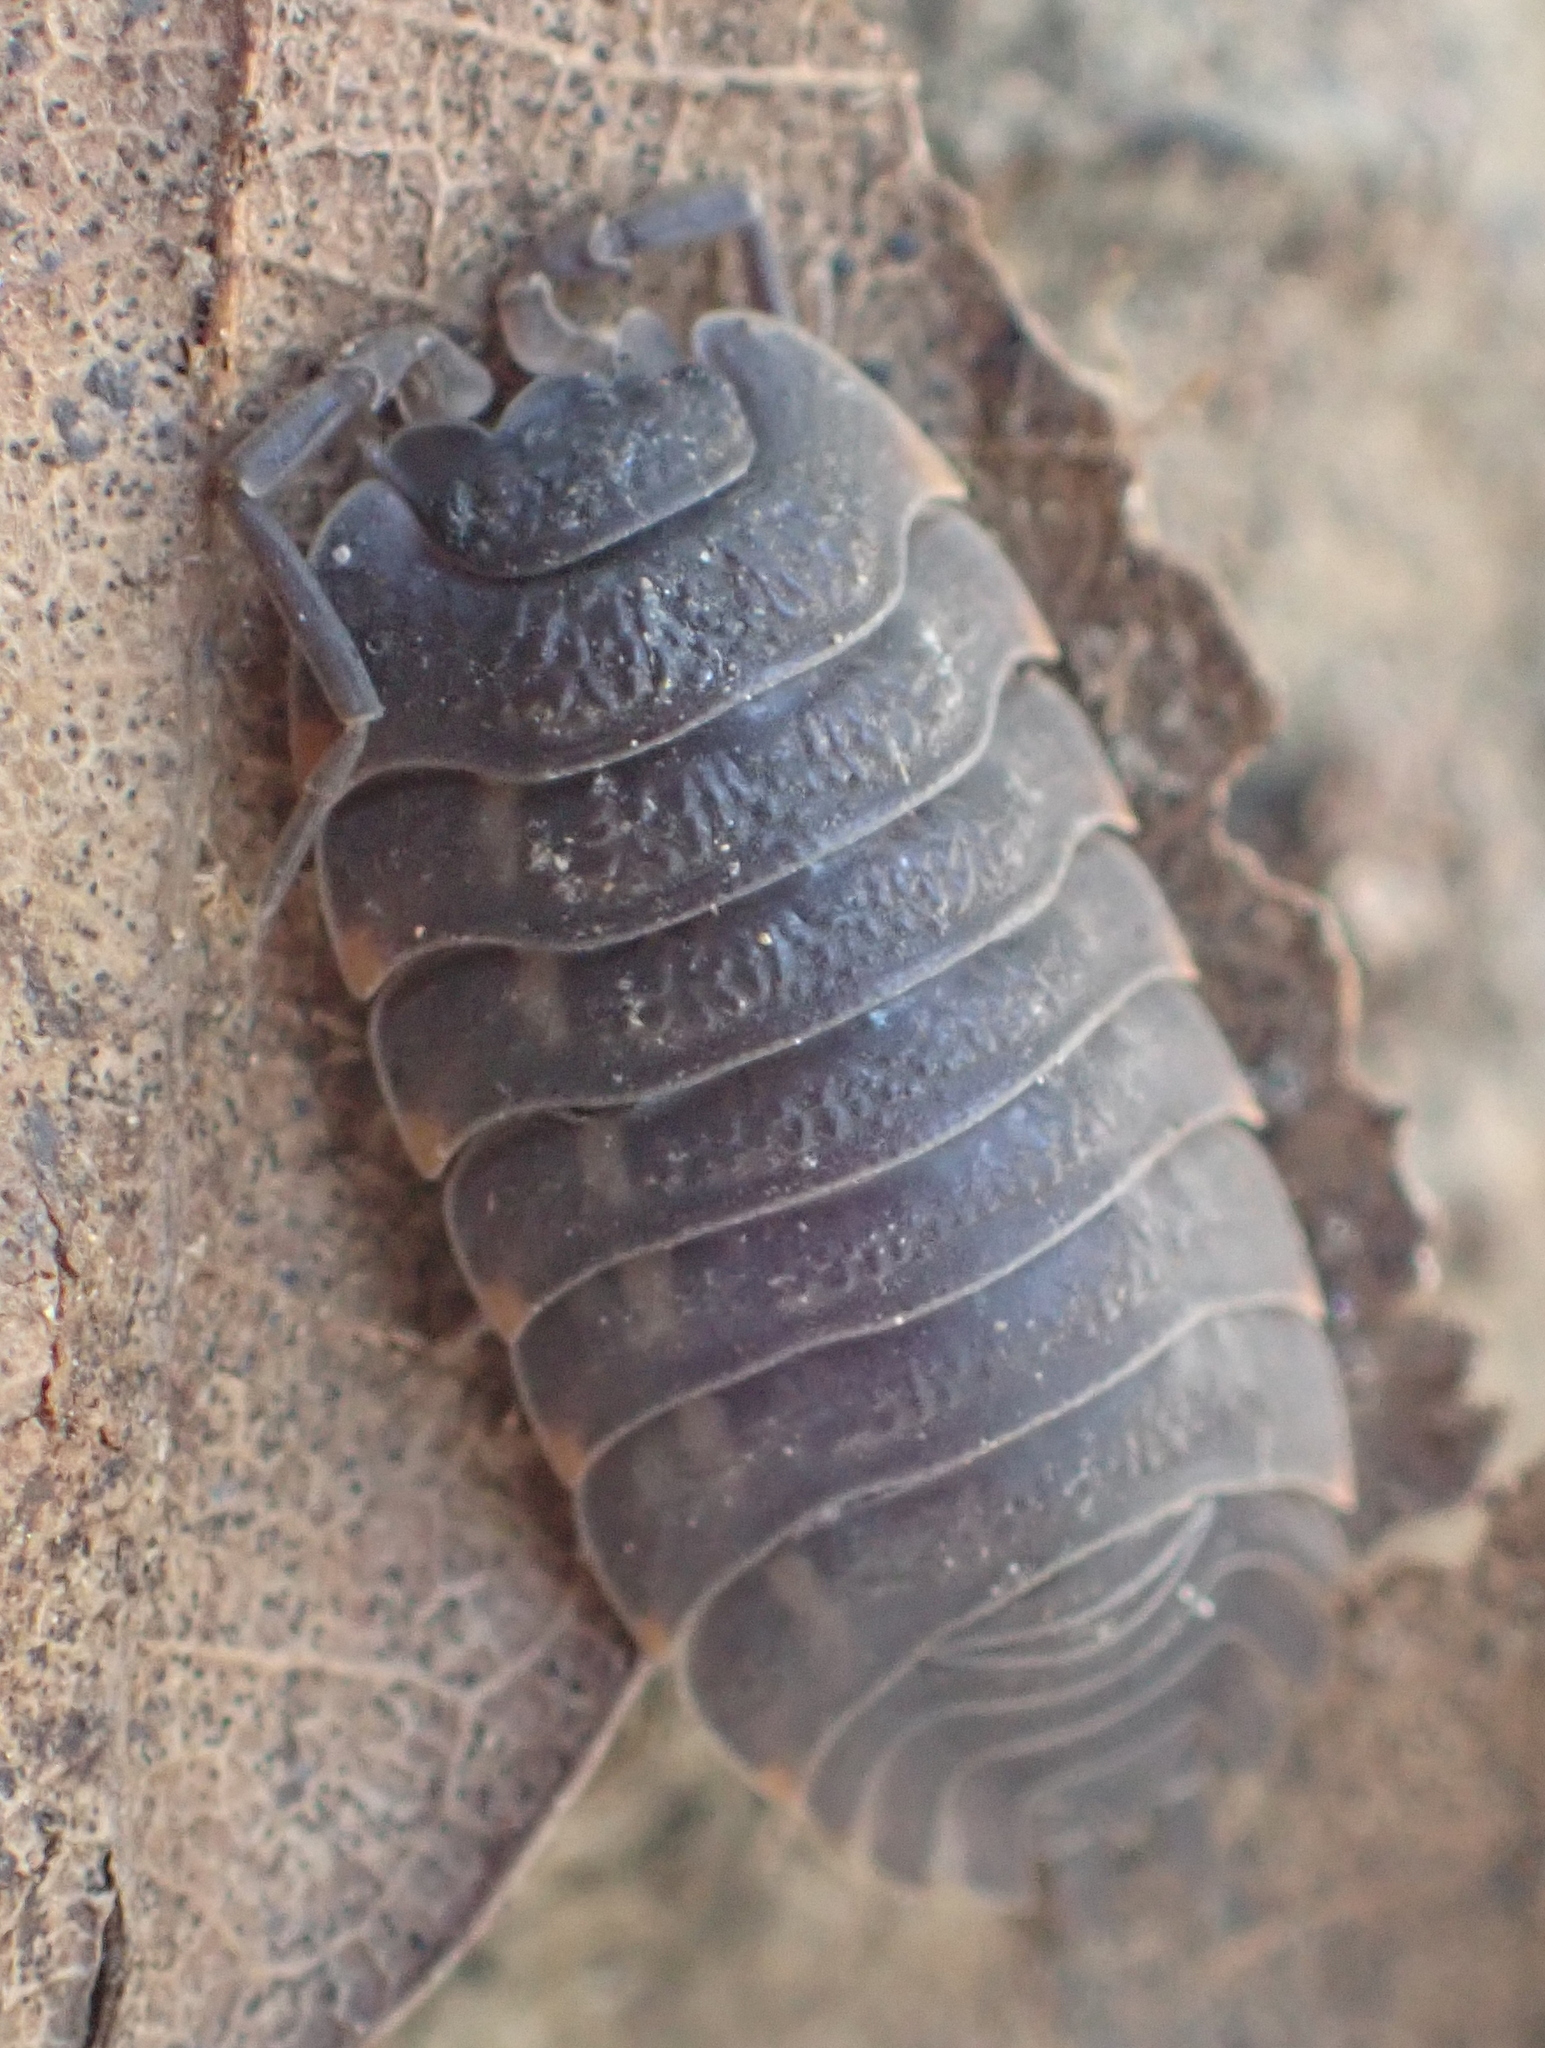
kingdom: Animalia
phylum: Arthropoda
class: Malacostraca
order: Isopoda
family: Trachelipodidae
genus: Trachelipus
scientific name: Trachelipus ratzeburgii
